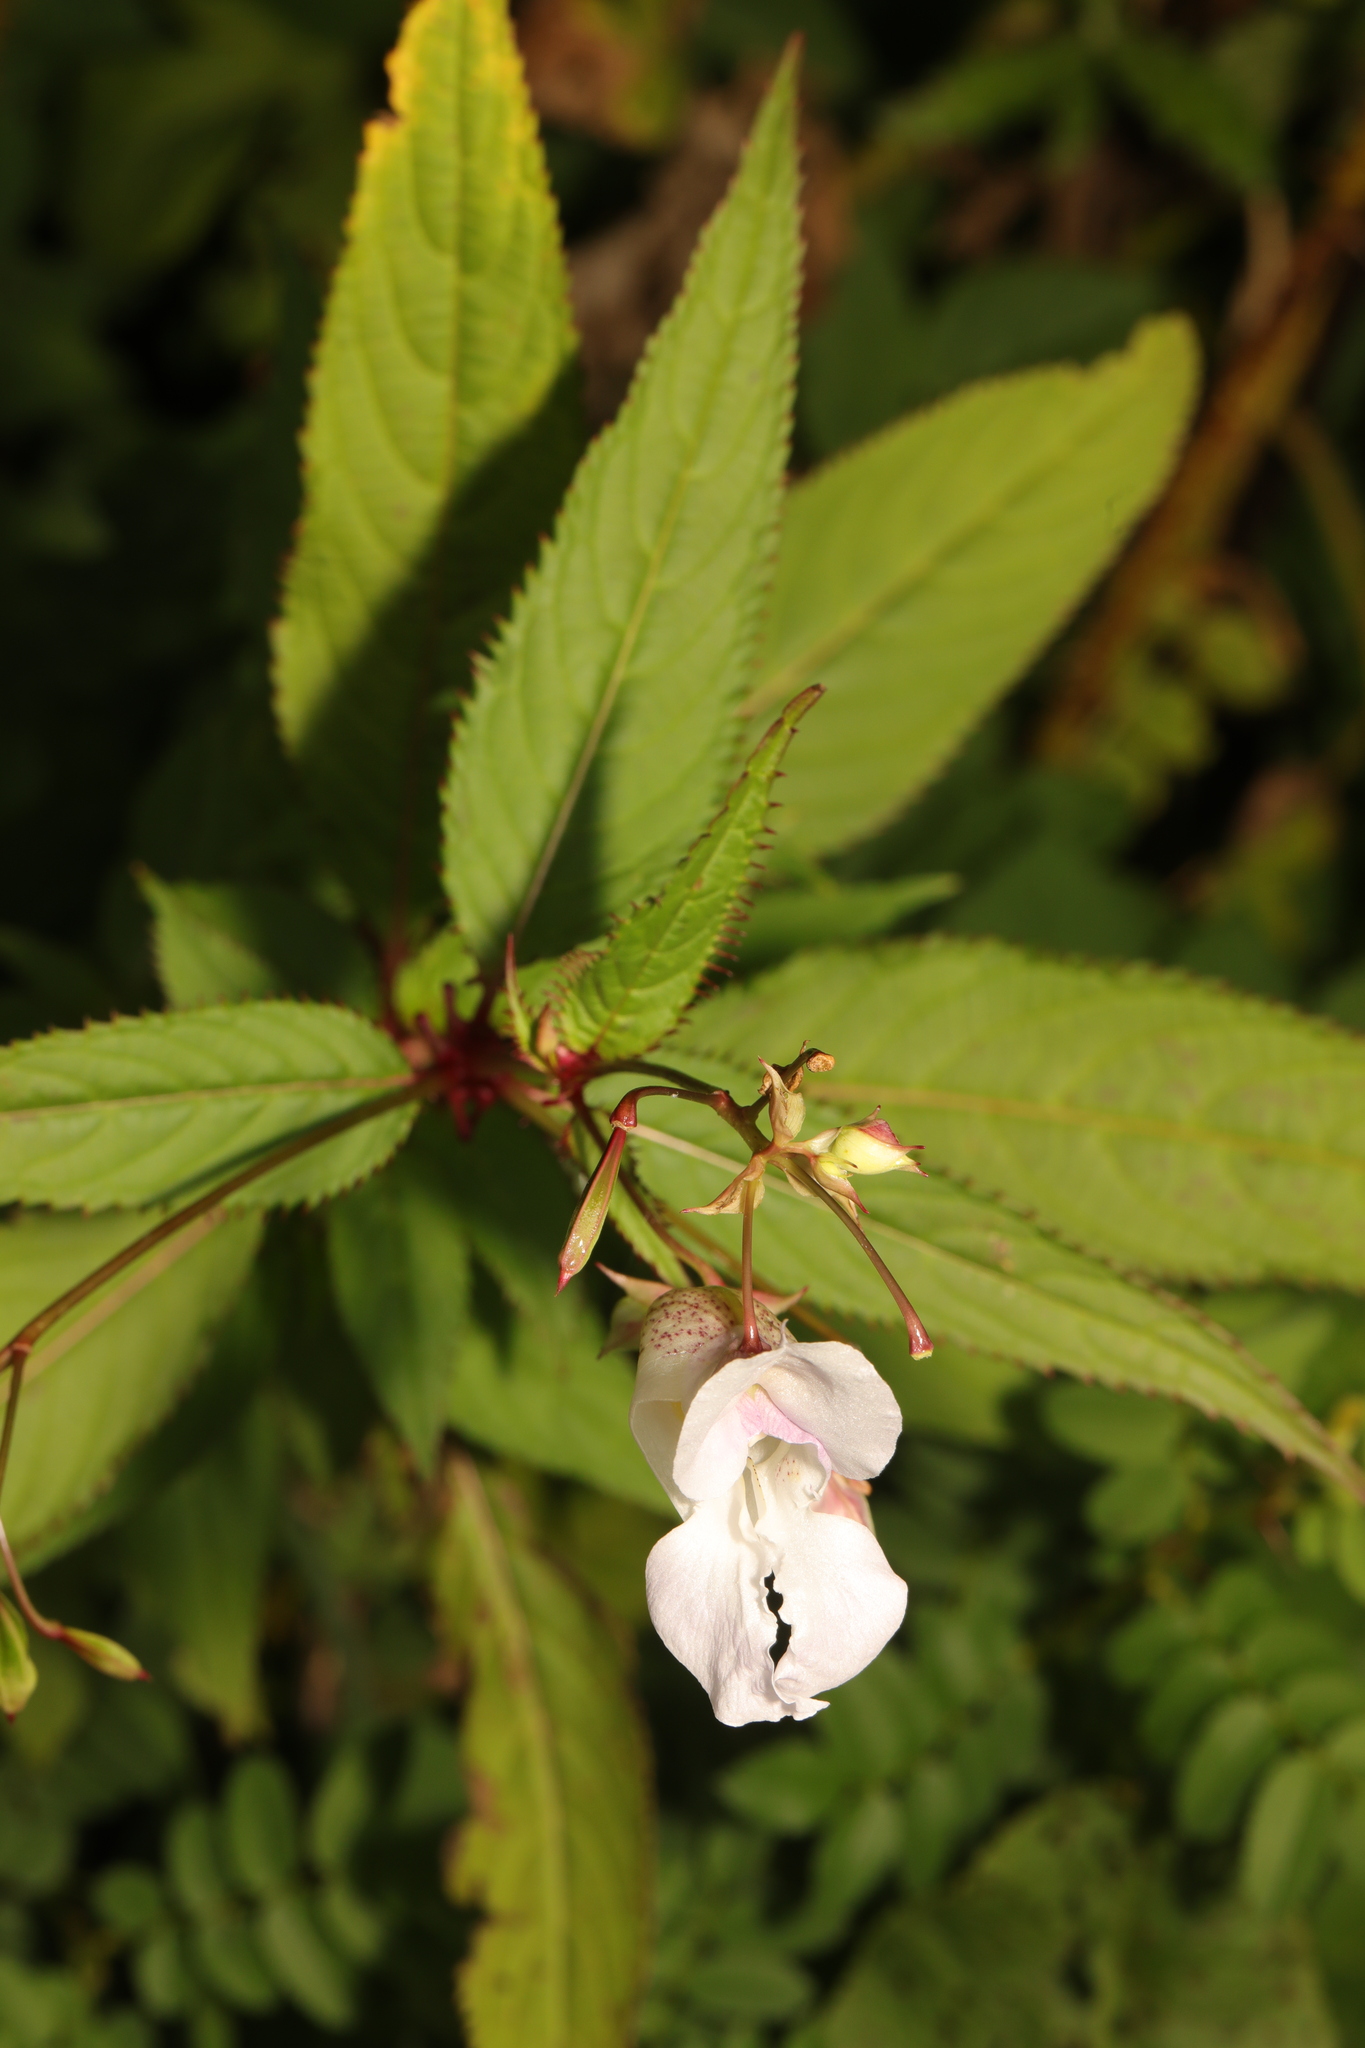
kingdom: Plantae
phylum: Tracheophyta
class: Magnoliopsida
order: Ericales
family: Balsaminaceae
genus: Impatiens
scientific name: Impatiens glandulifera
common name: Himalayan balsam
